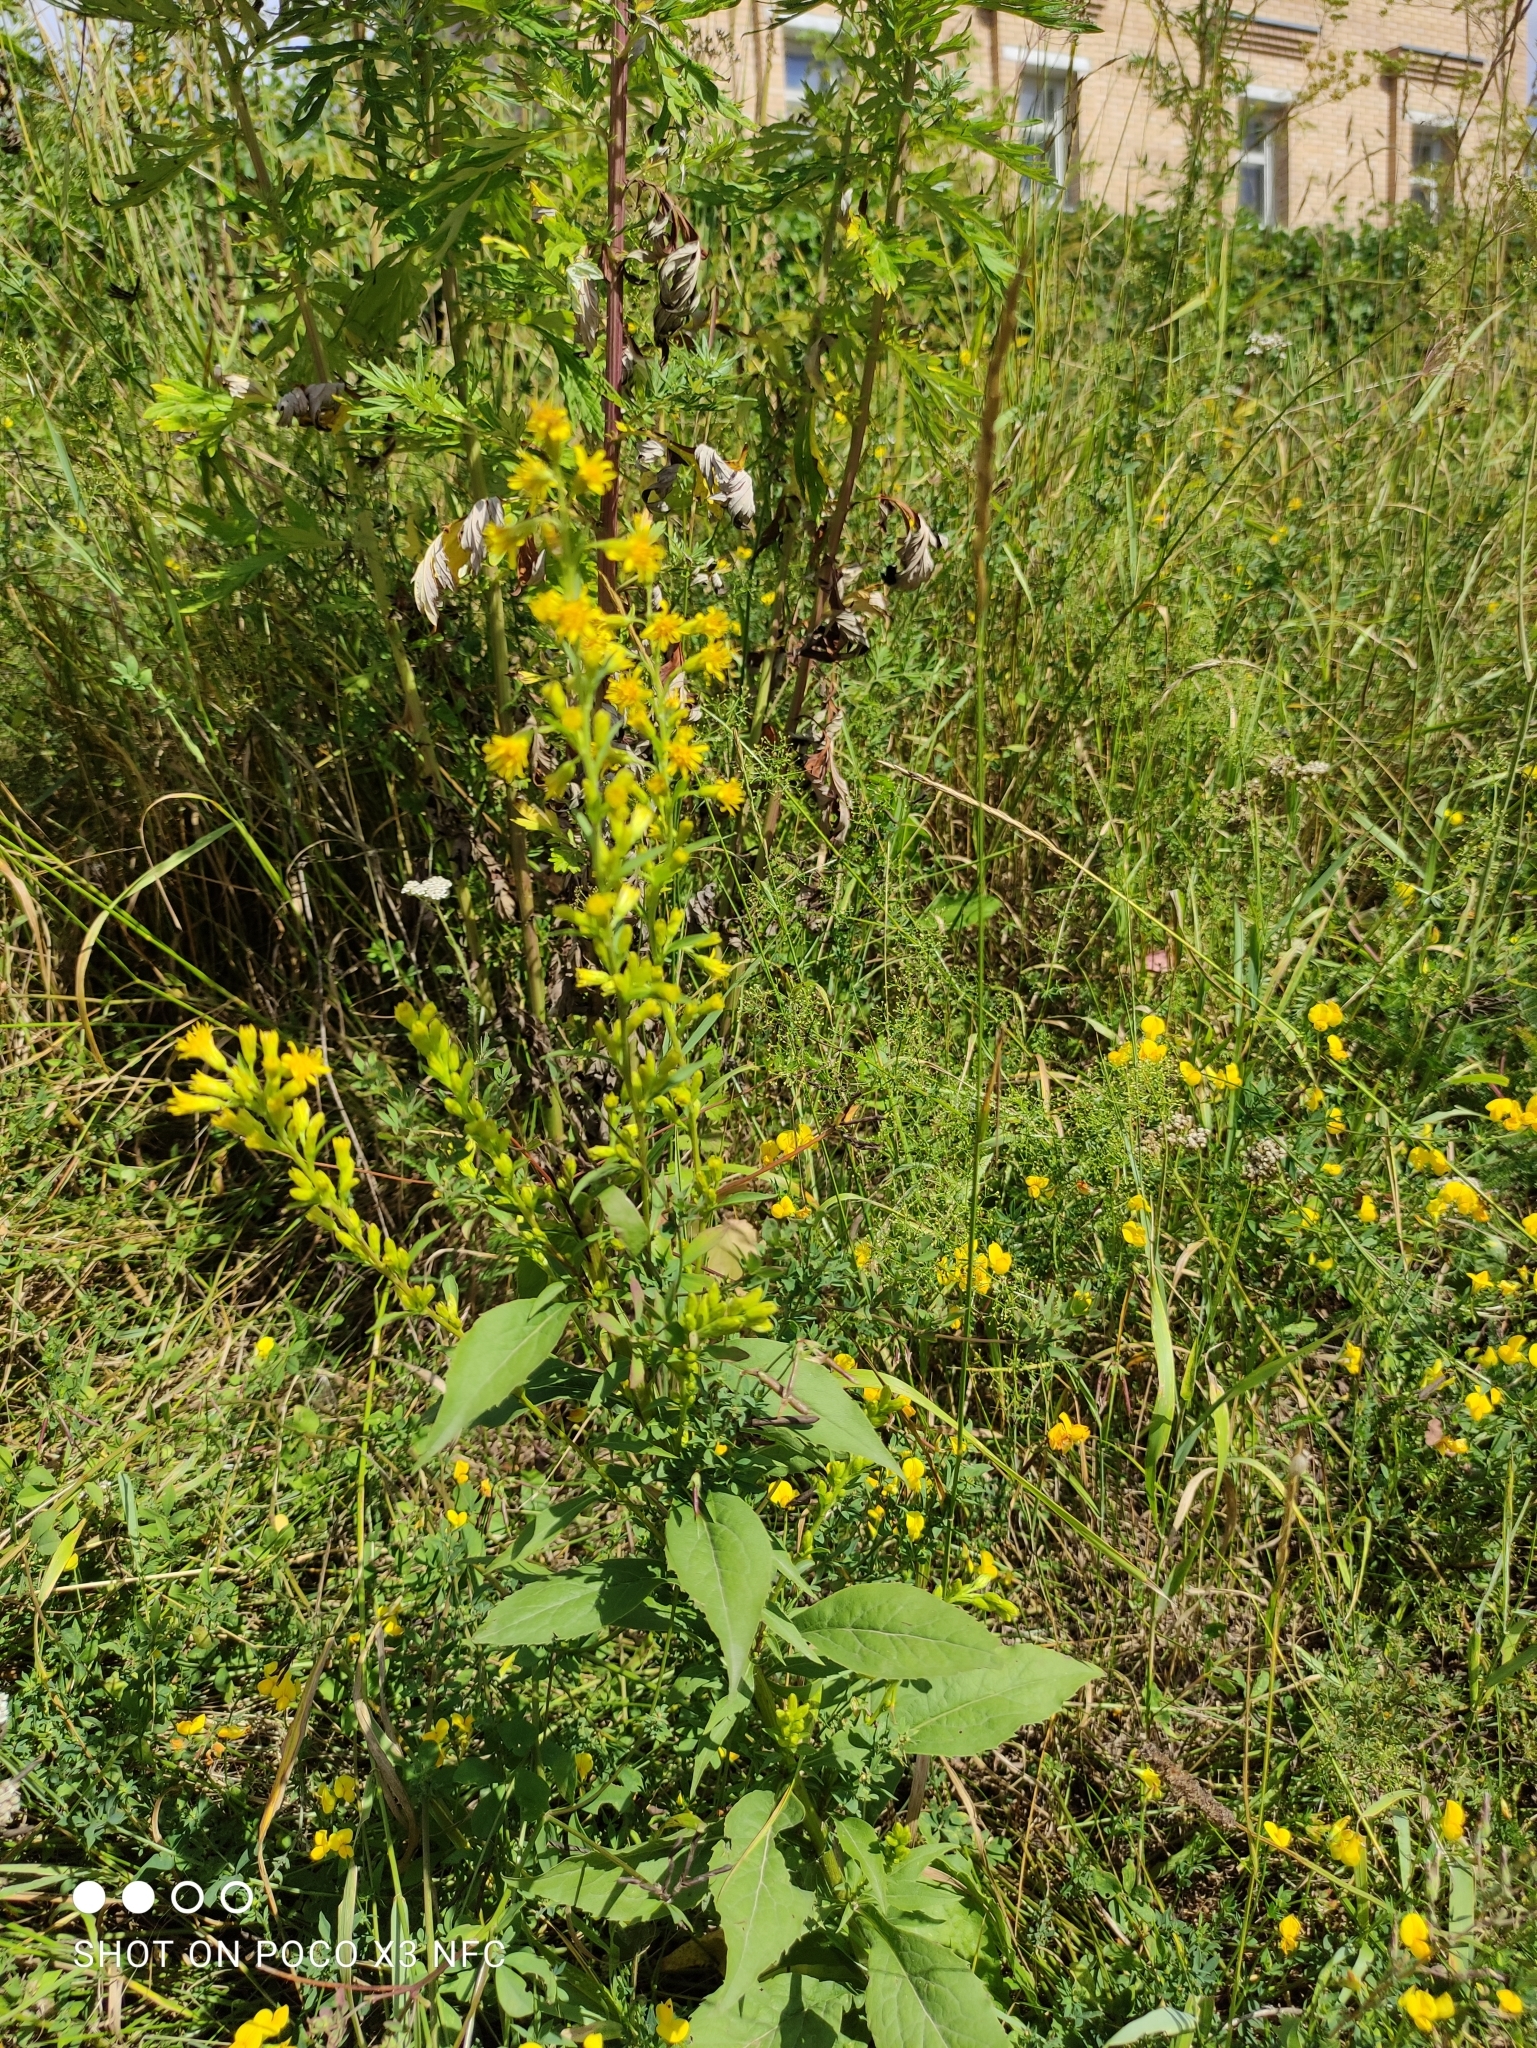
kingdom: Plantae
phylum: Tracheophyta
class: Magnoliopsida
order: Asterales
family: Asteraceae
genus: Solidago
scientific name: Solidago virgaurea
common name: Goldenrod
